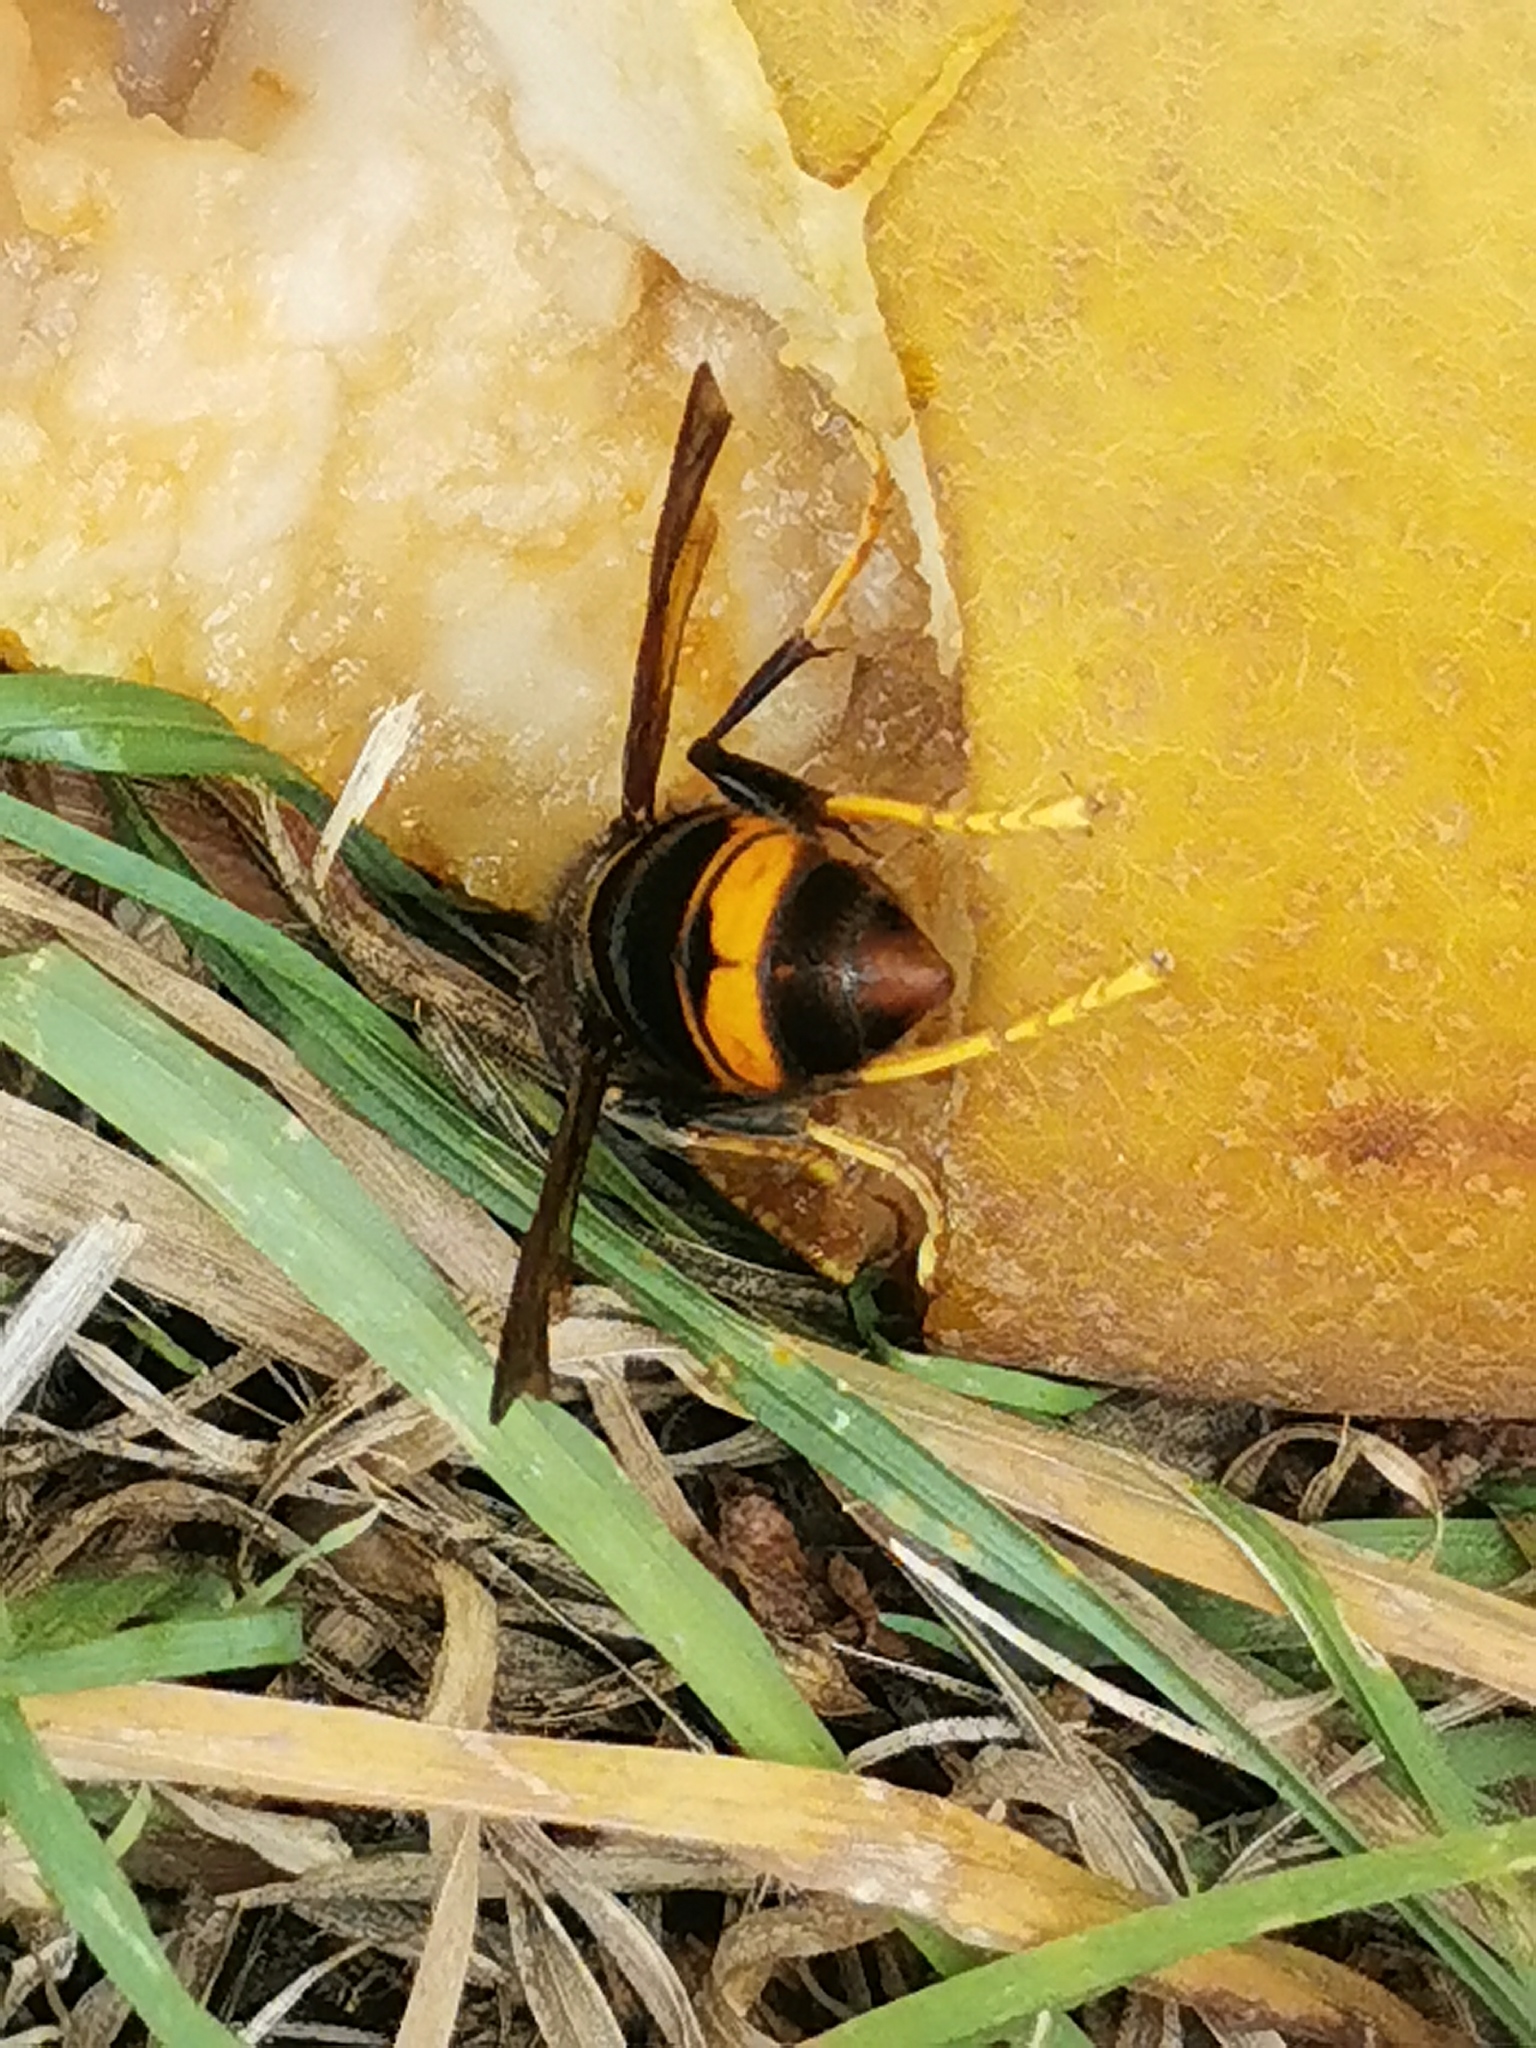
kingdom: Animalia
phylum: Arthropoda
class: Insecta
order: Hymenoptera
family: Vespidae
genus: Vespa
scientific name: Vespa velutina
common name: Asian hornet
